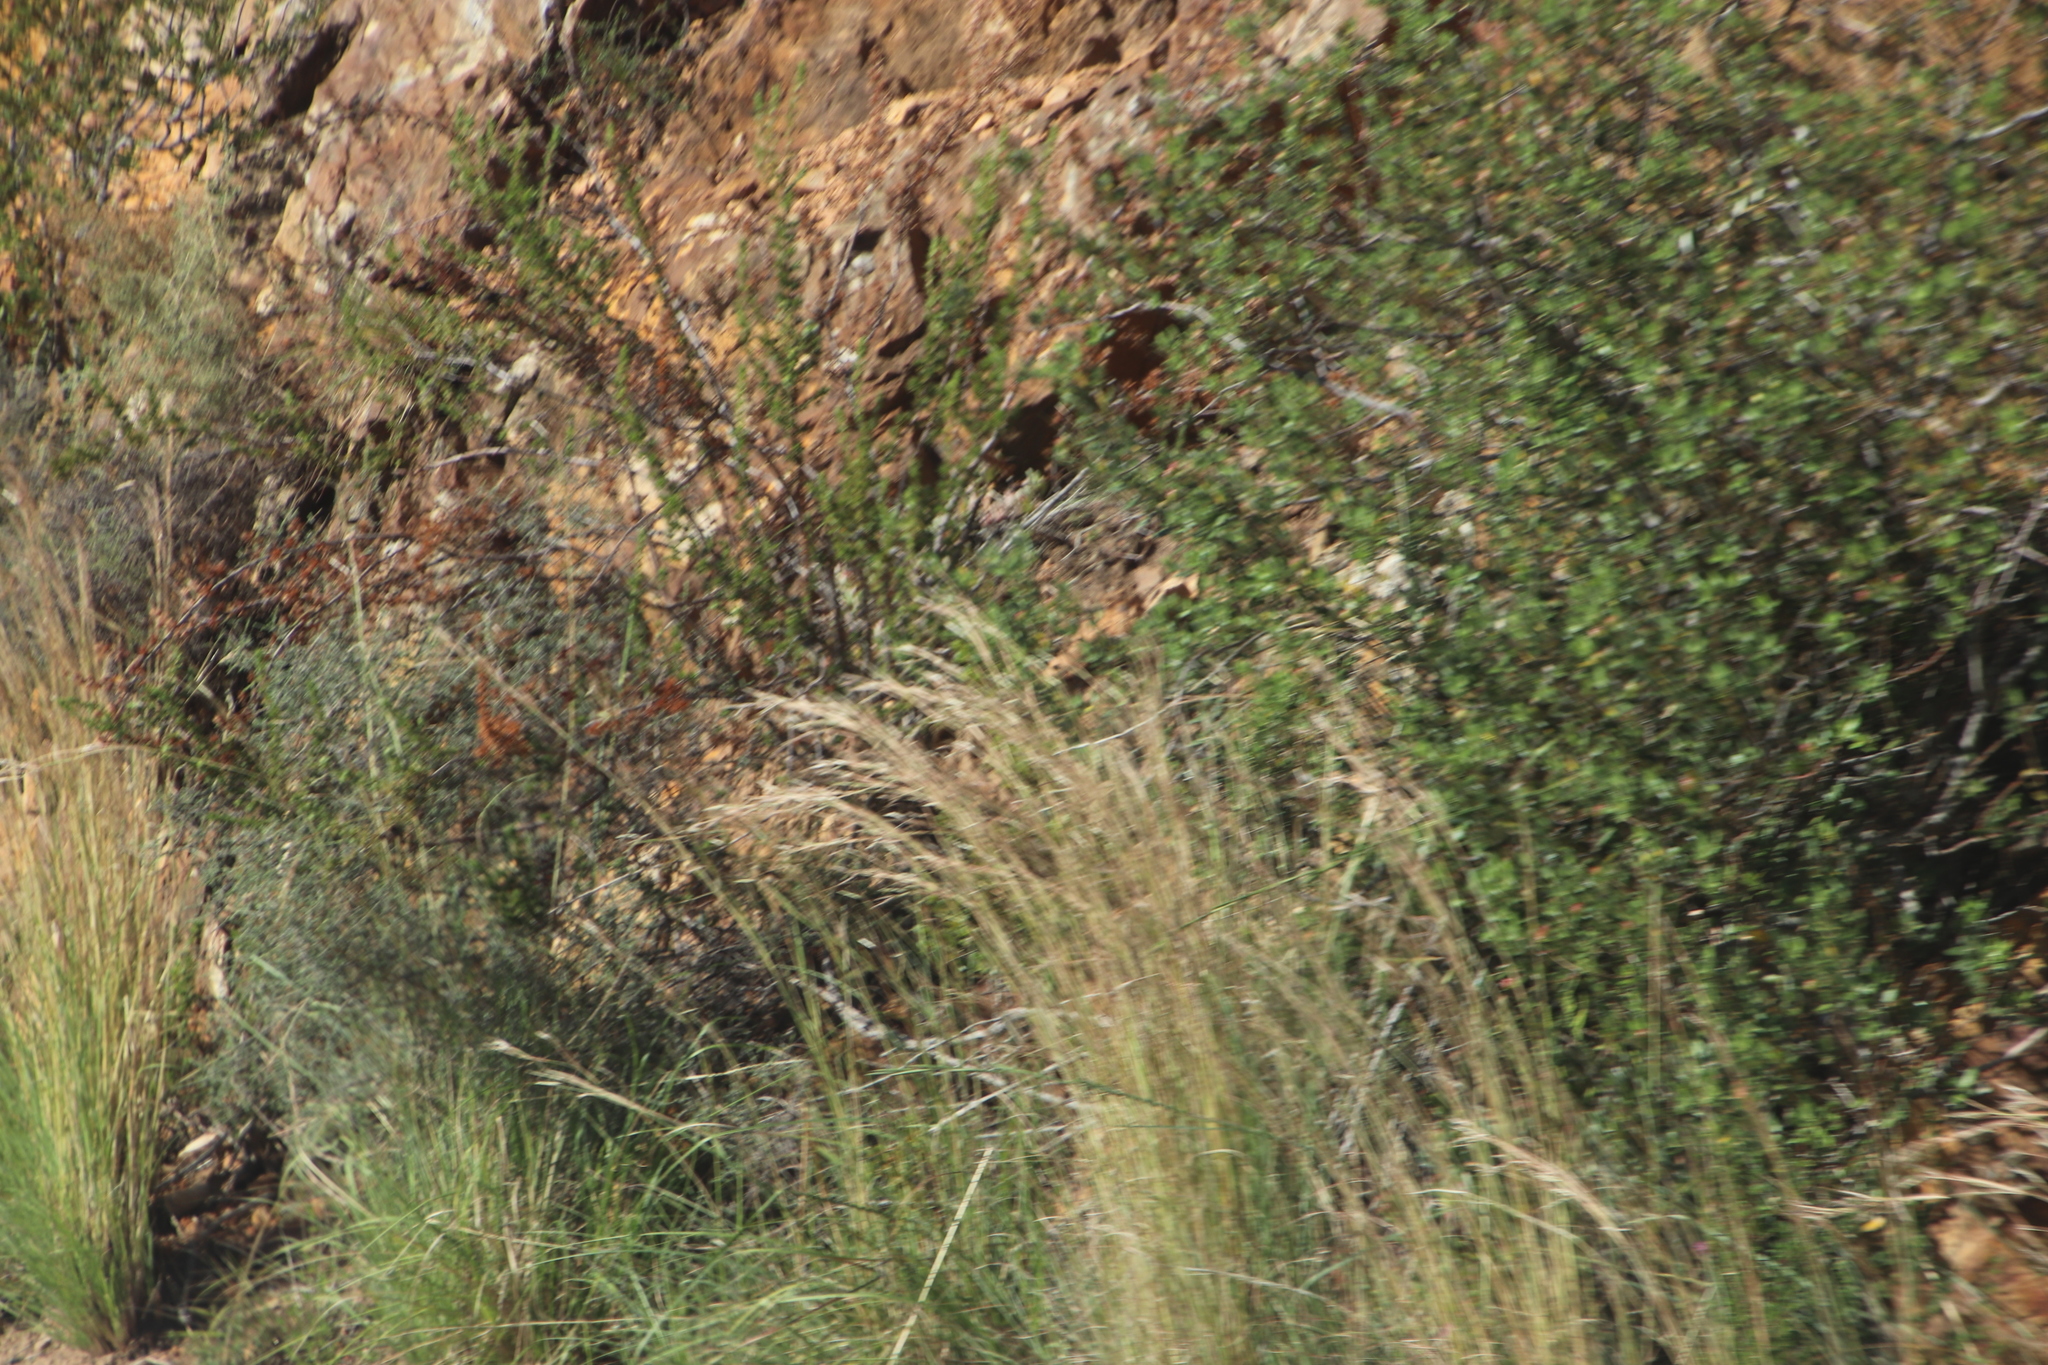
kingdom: Plantae
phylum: Tracheophyta
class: Liliopsida
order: Poales
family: Poaceae
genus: Hyparrhenia
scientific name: Hyparrhenia hirta
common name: Thatching grass
